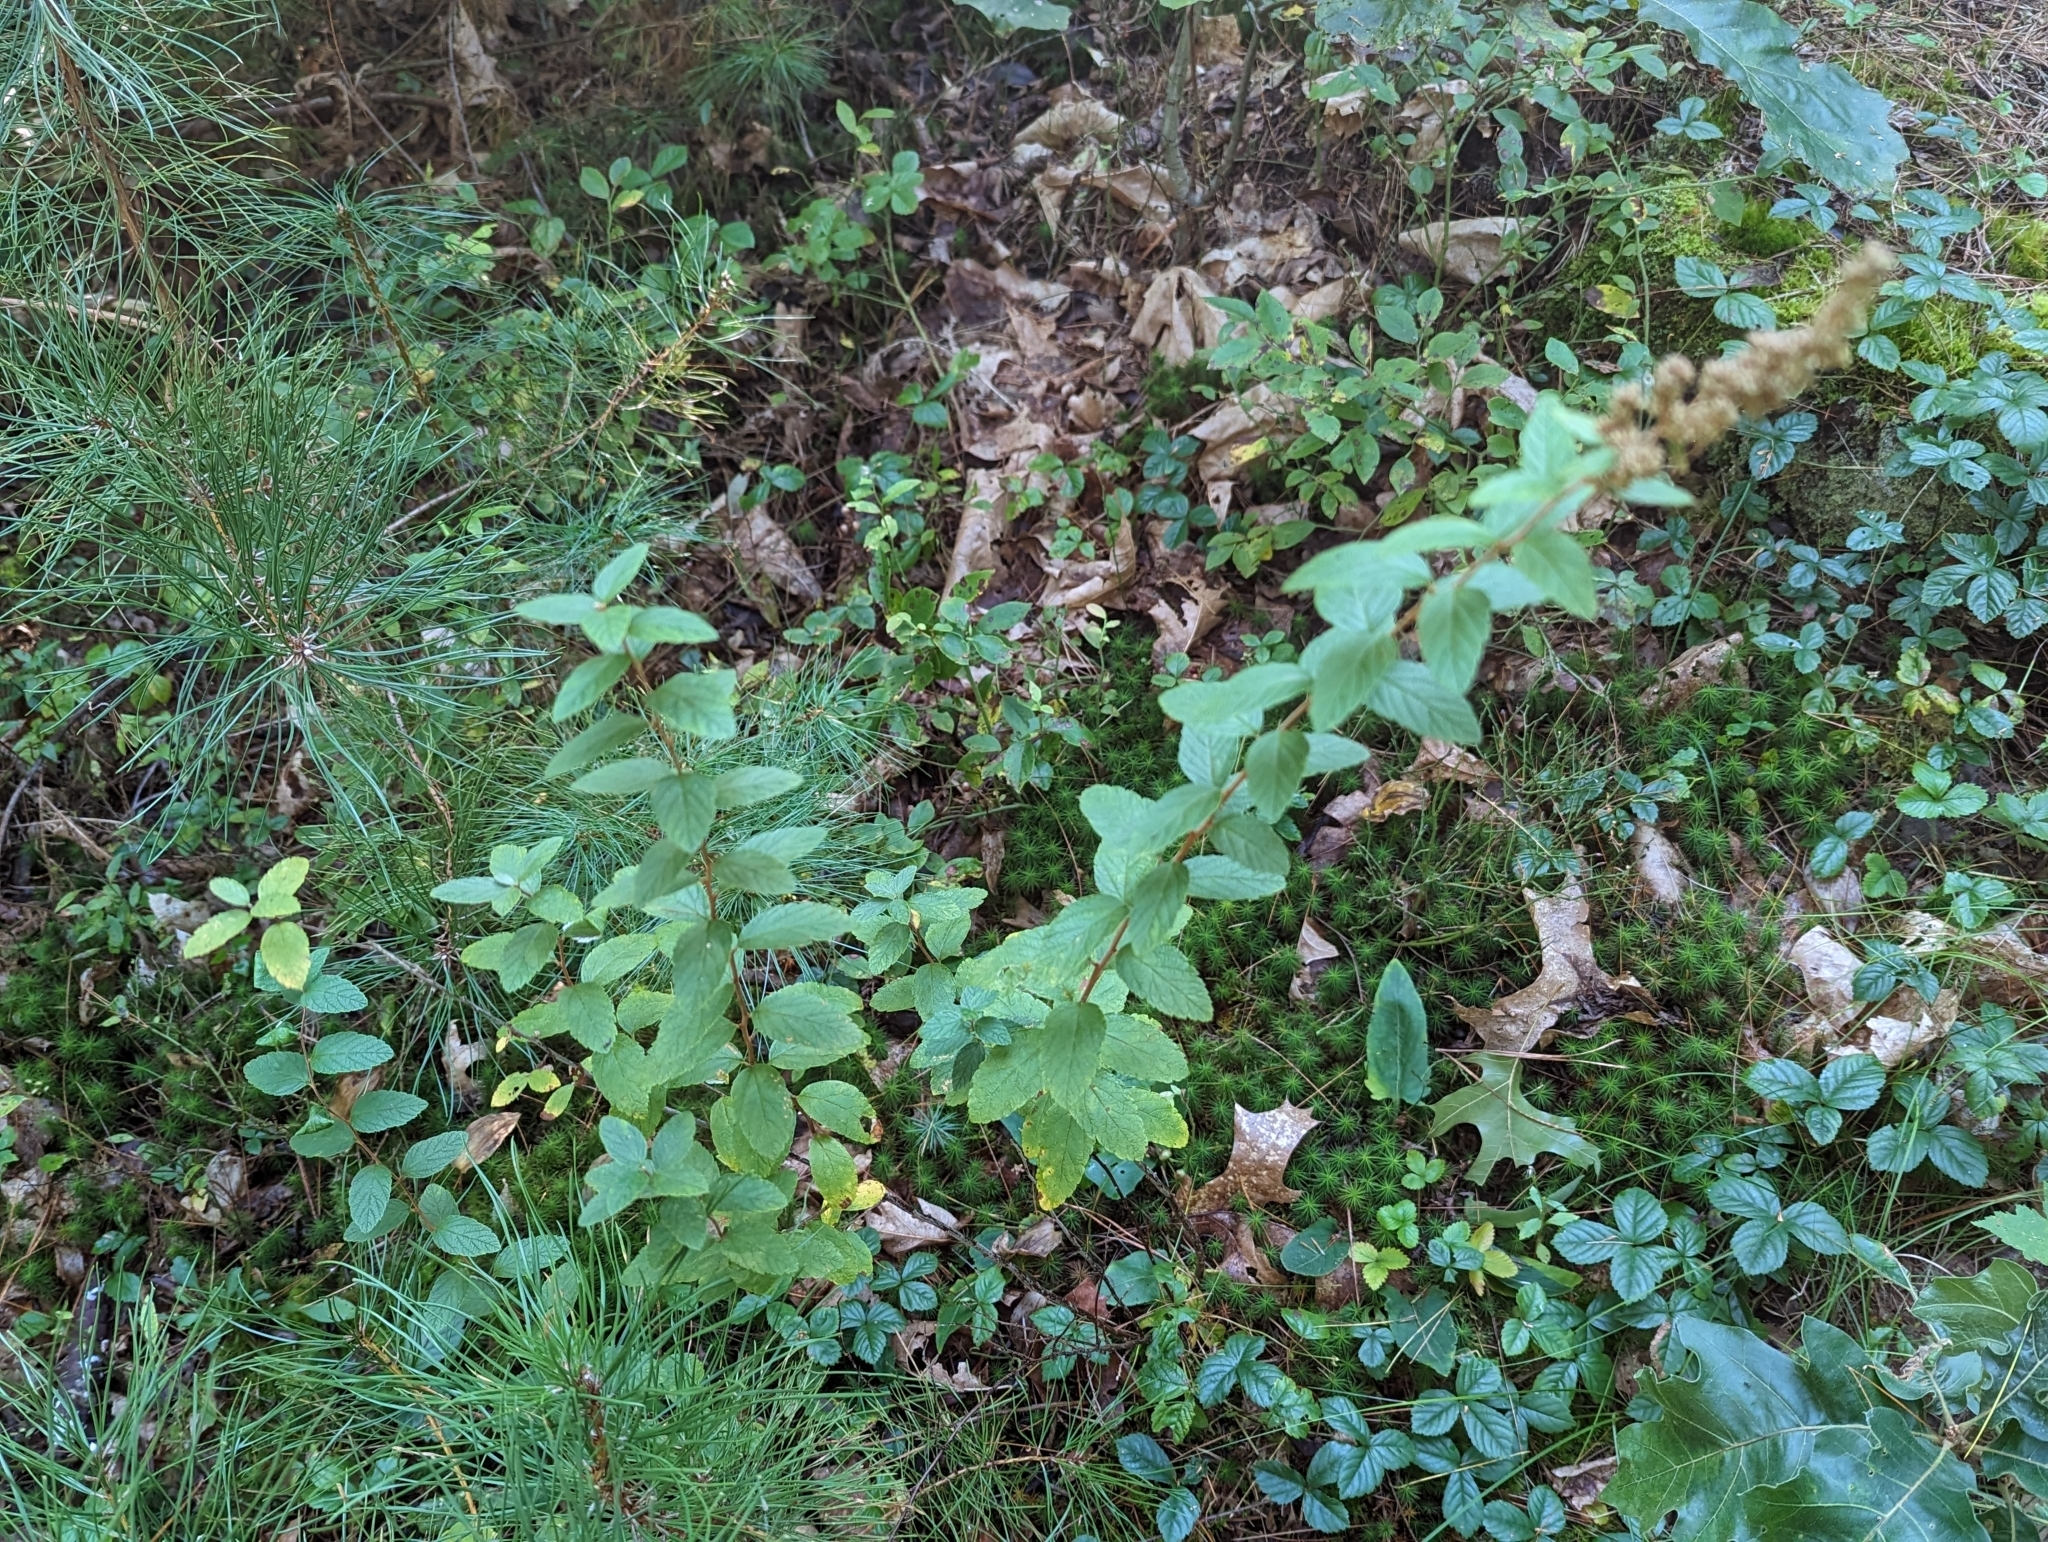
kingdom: Plantae
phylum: Tracheophyta
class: Magnoliopsida
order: Rosales
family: Rosaceae
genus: Spiraea
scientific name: Spiraea tomentosa
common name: Hardhack
